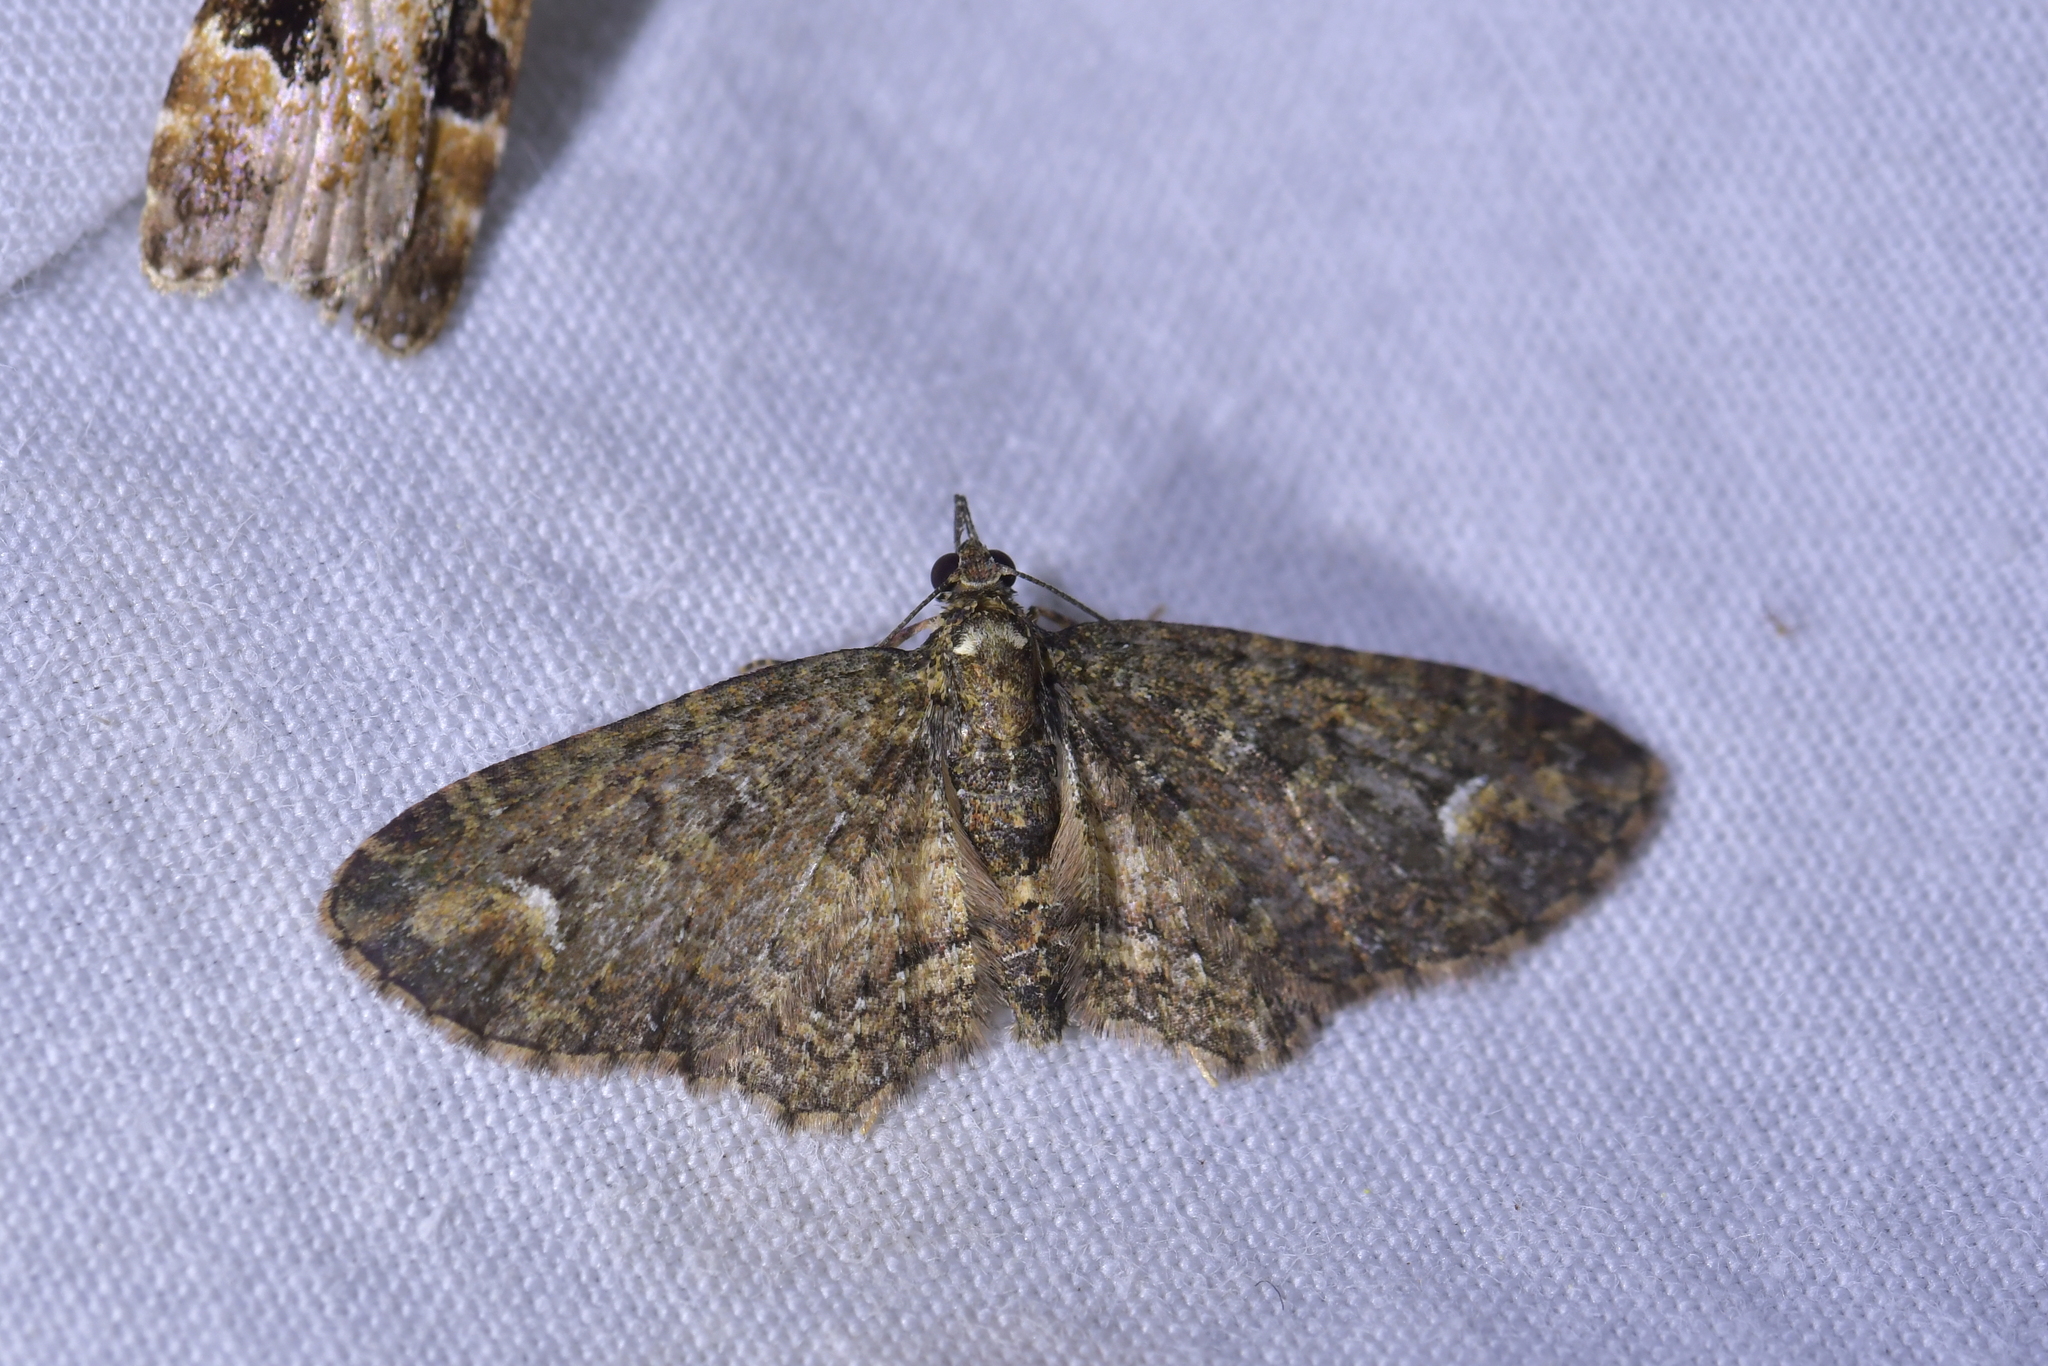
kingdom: Animalia
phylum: Arthropoda
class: Insecta
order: Lepidoptera
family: Geometridae
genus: Pasiphilodes
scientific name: Pasiphilodes testulata
